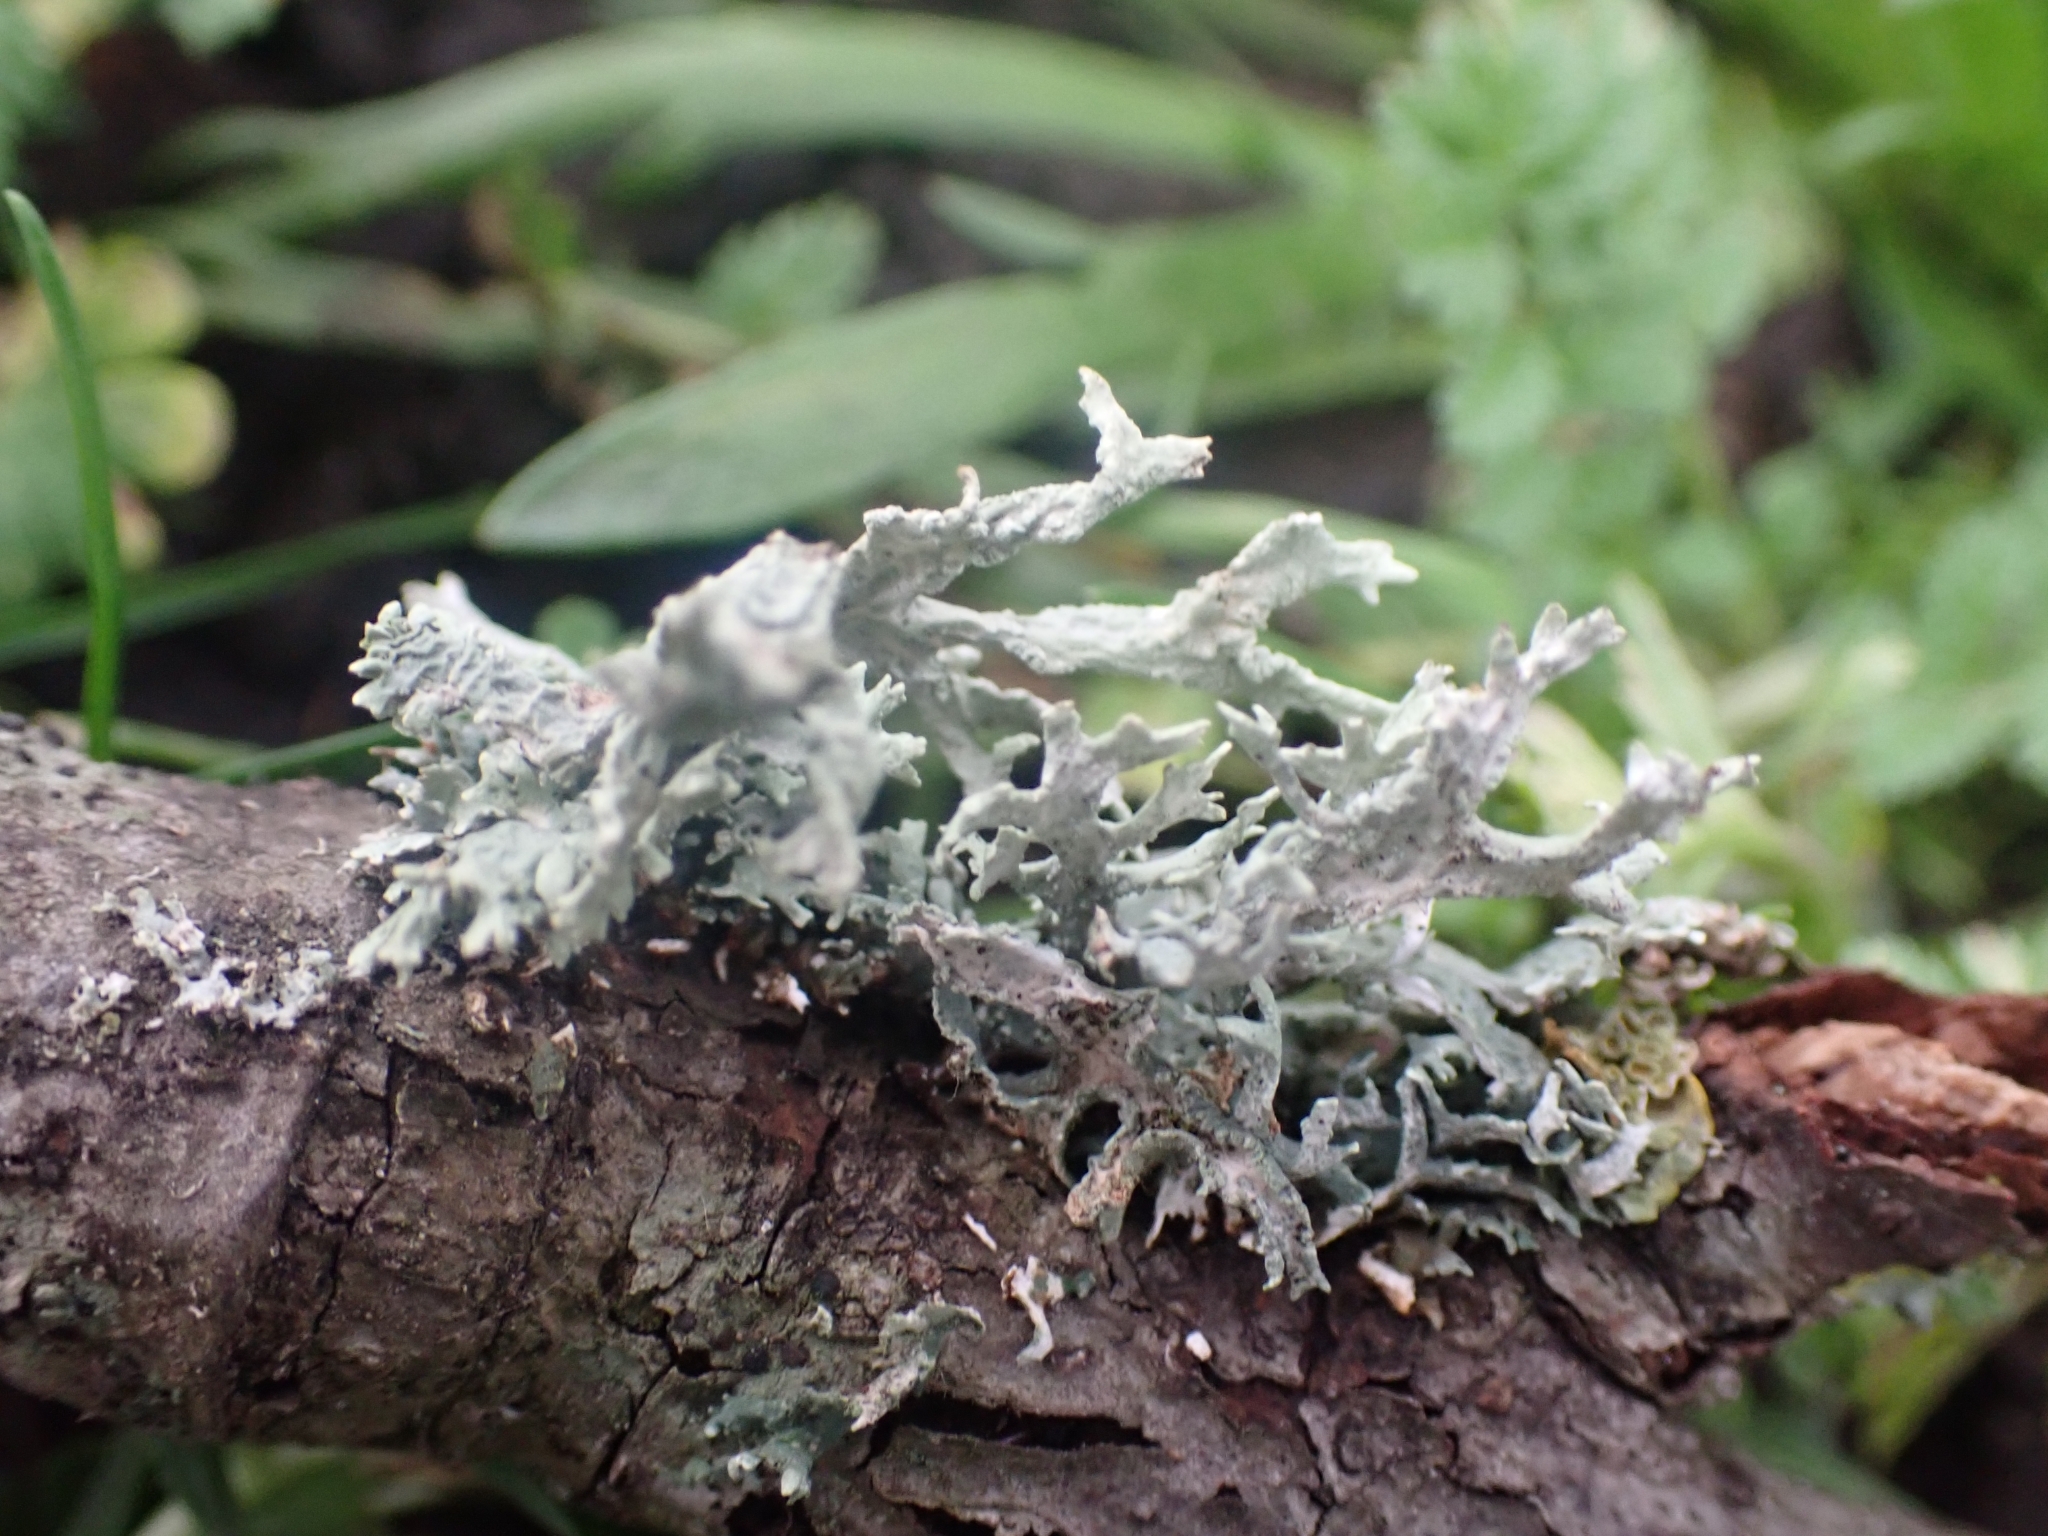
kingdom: Fungi
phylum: Ascomycota
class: Lecanoromycetes
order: Lecanorales
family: Parmeliaceae
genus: Evernia
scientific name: Evernia prunastri
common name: Oak moss
